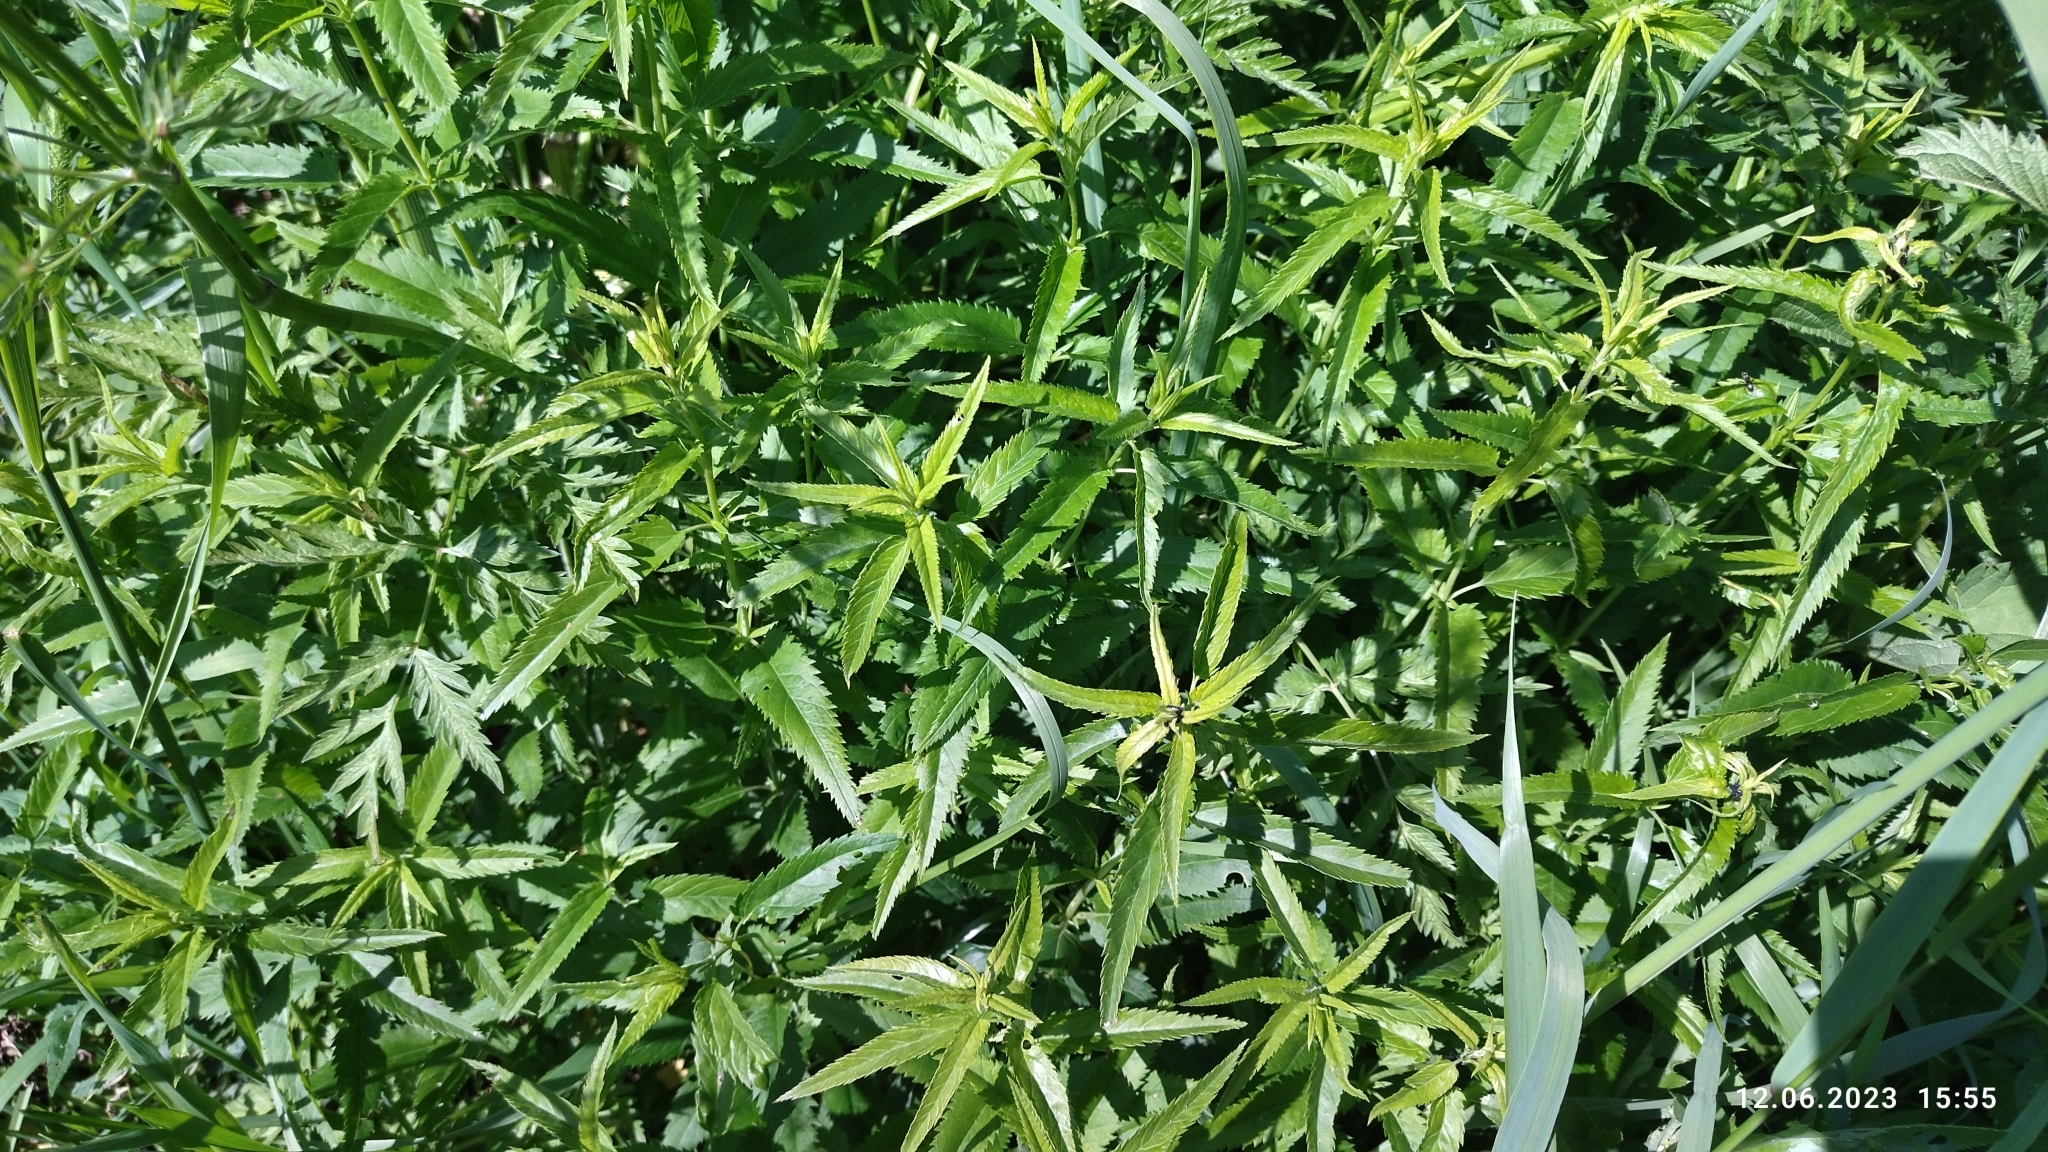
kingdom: Plantae
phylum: Tracheophyta
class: Magnoliopsida
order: Lamiales
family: Plantaginaceae
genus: Veronica
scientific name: Veronica longifolia
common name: Garden speedwell
